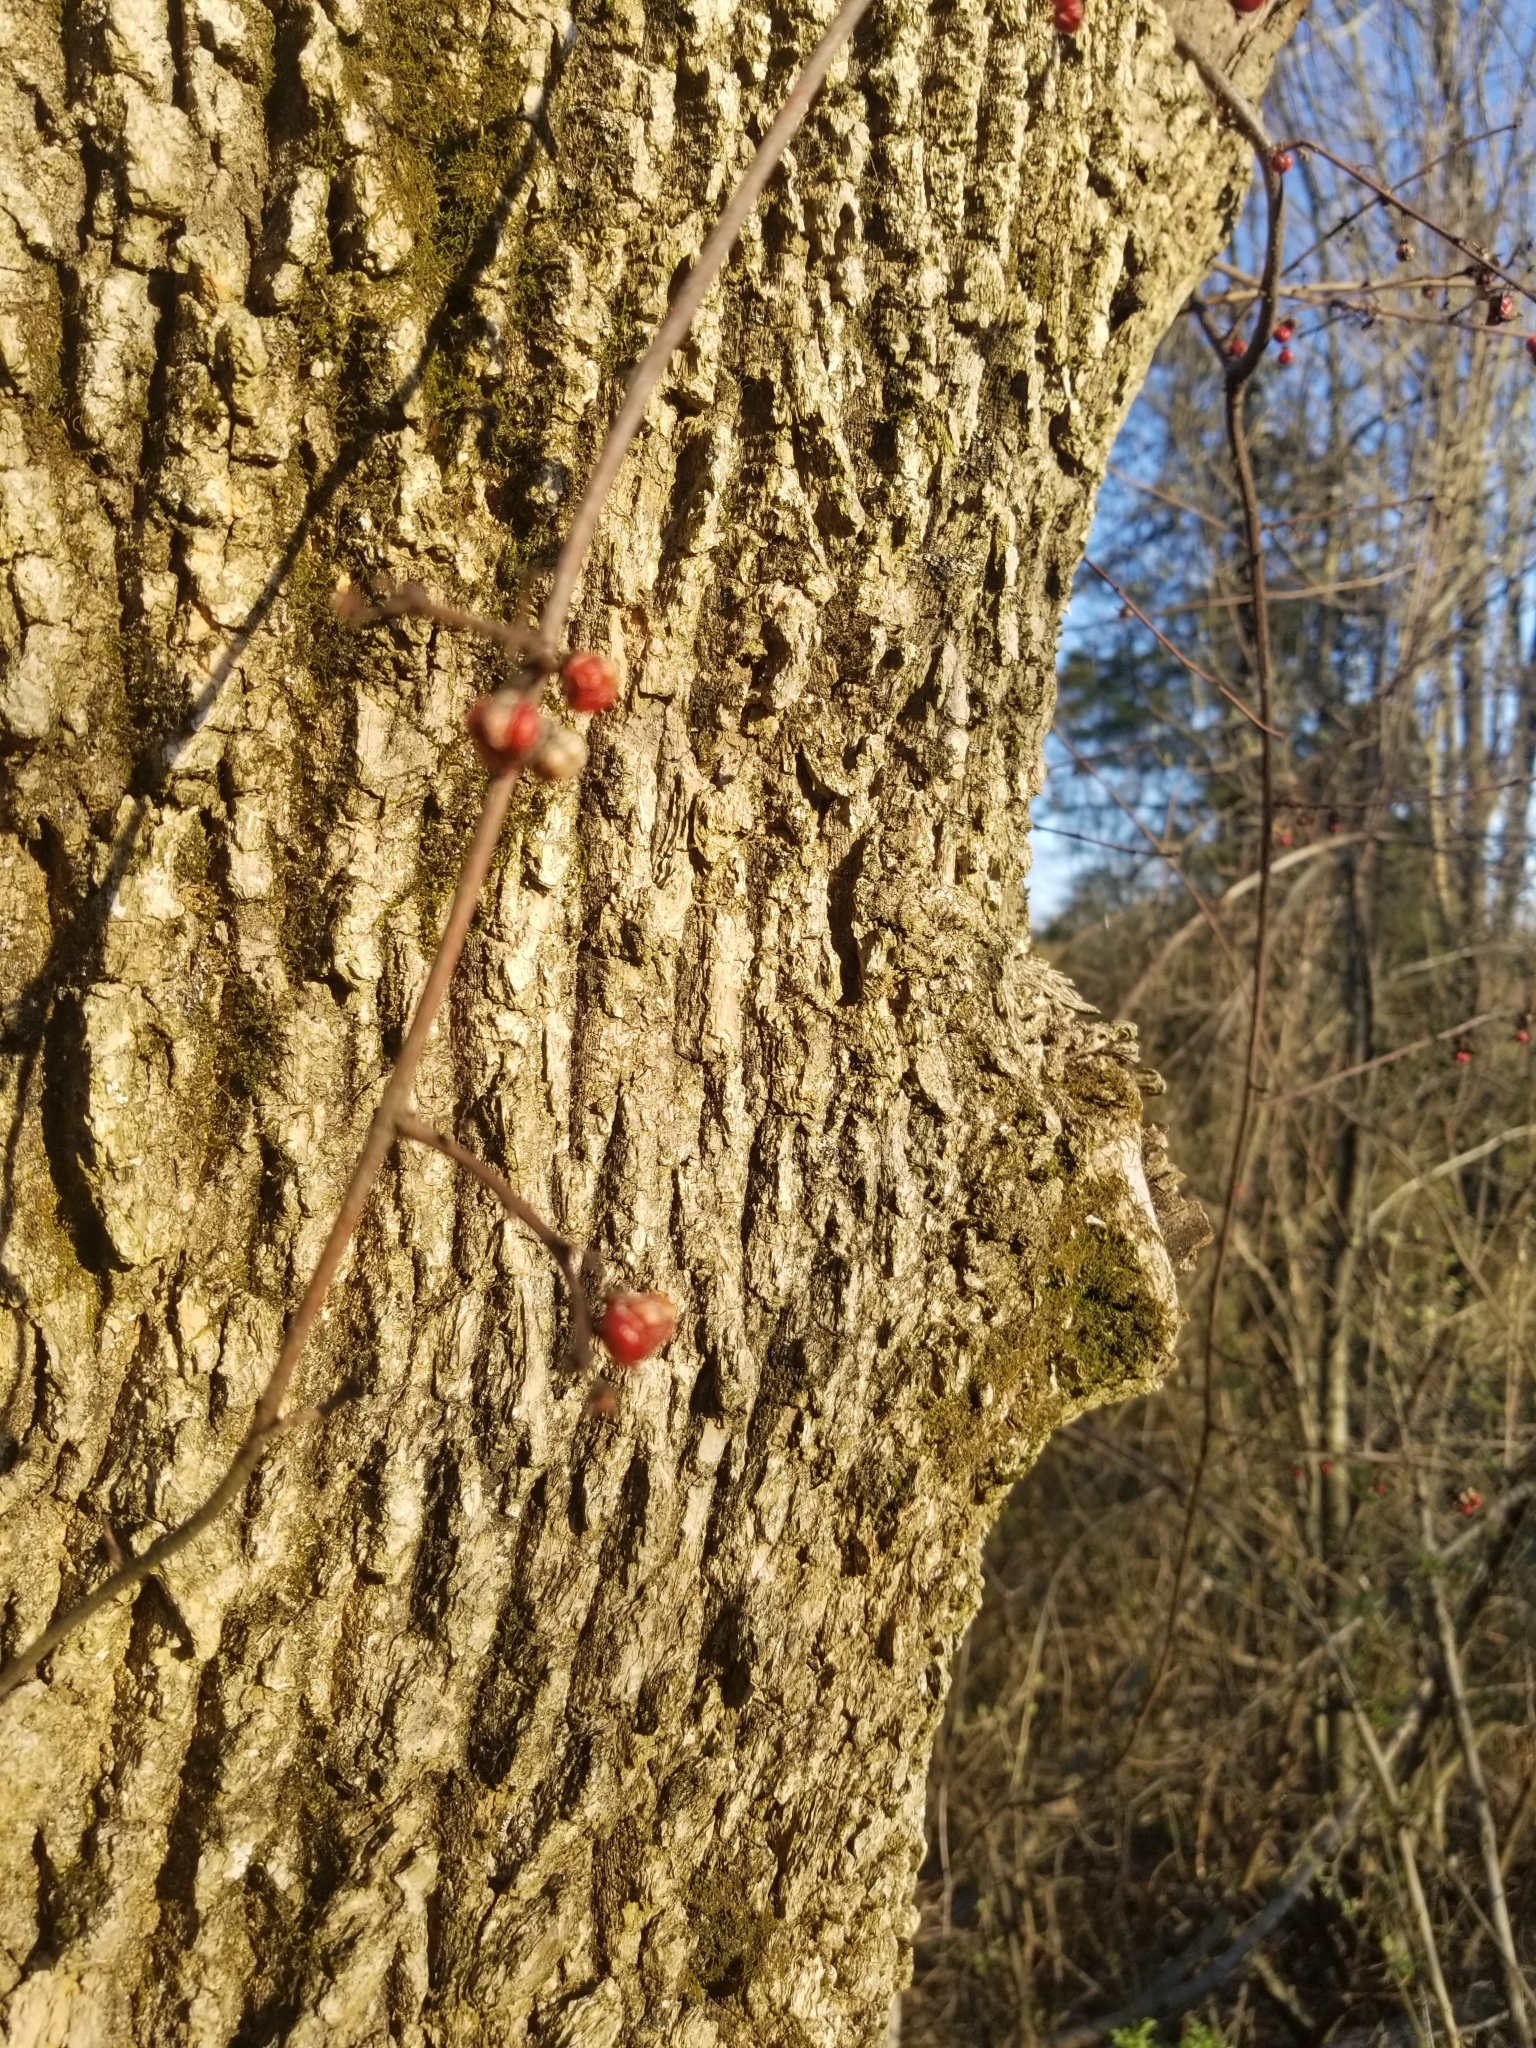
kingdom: Plantae
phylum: Tracheophyta
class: Magnoliopsida
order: Celastrales
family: Celastraceae
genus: Celastrus
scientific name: Celastrus orbiculatus
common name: Oriental bittersweet
